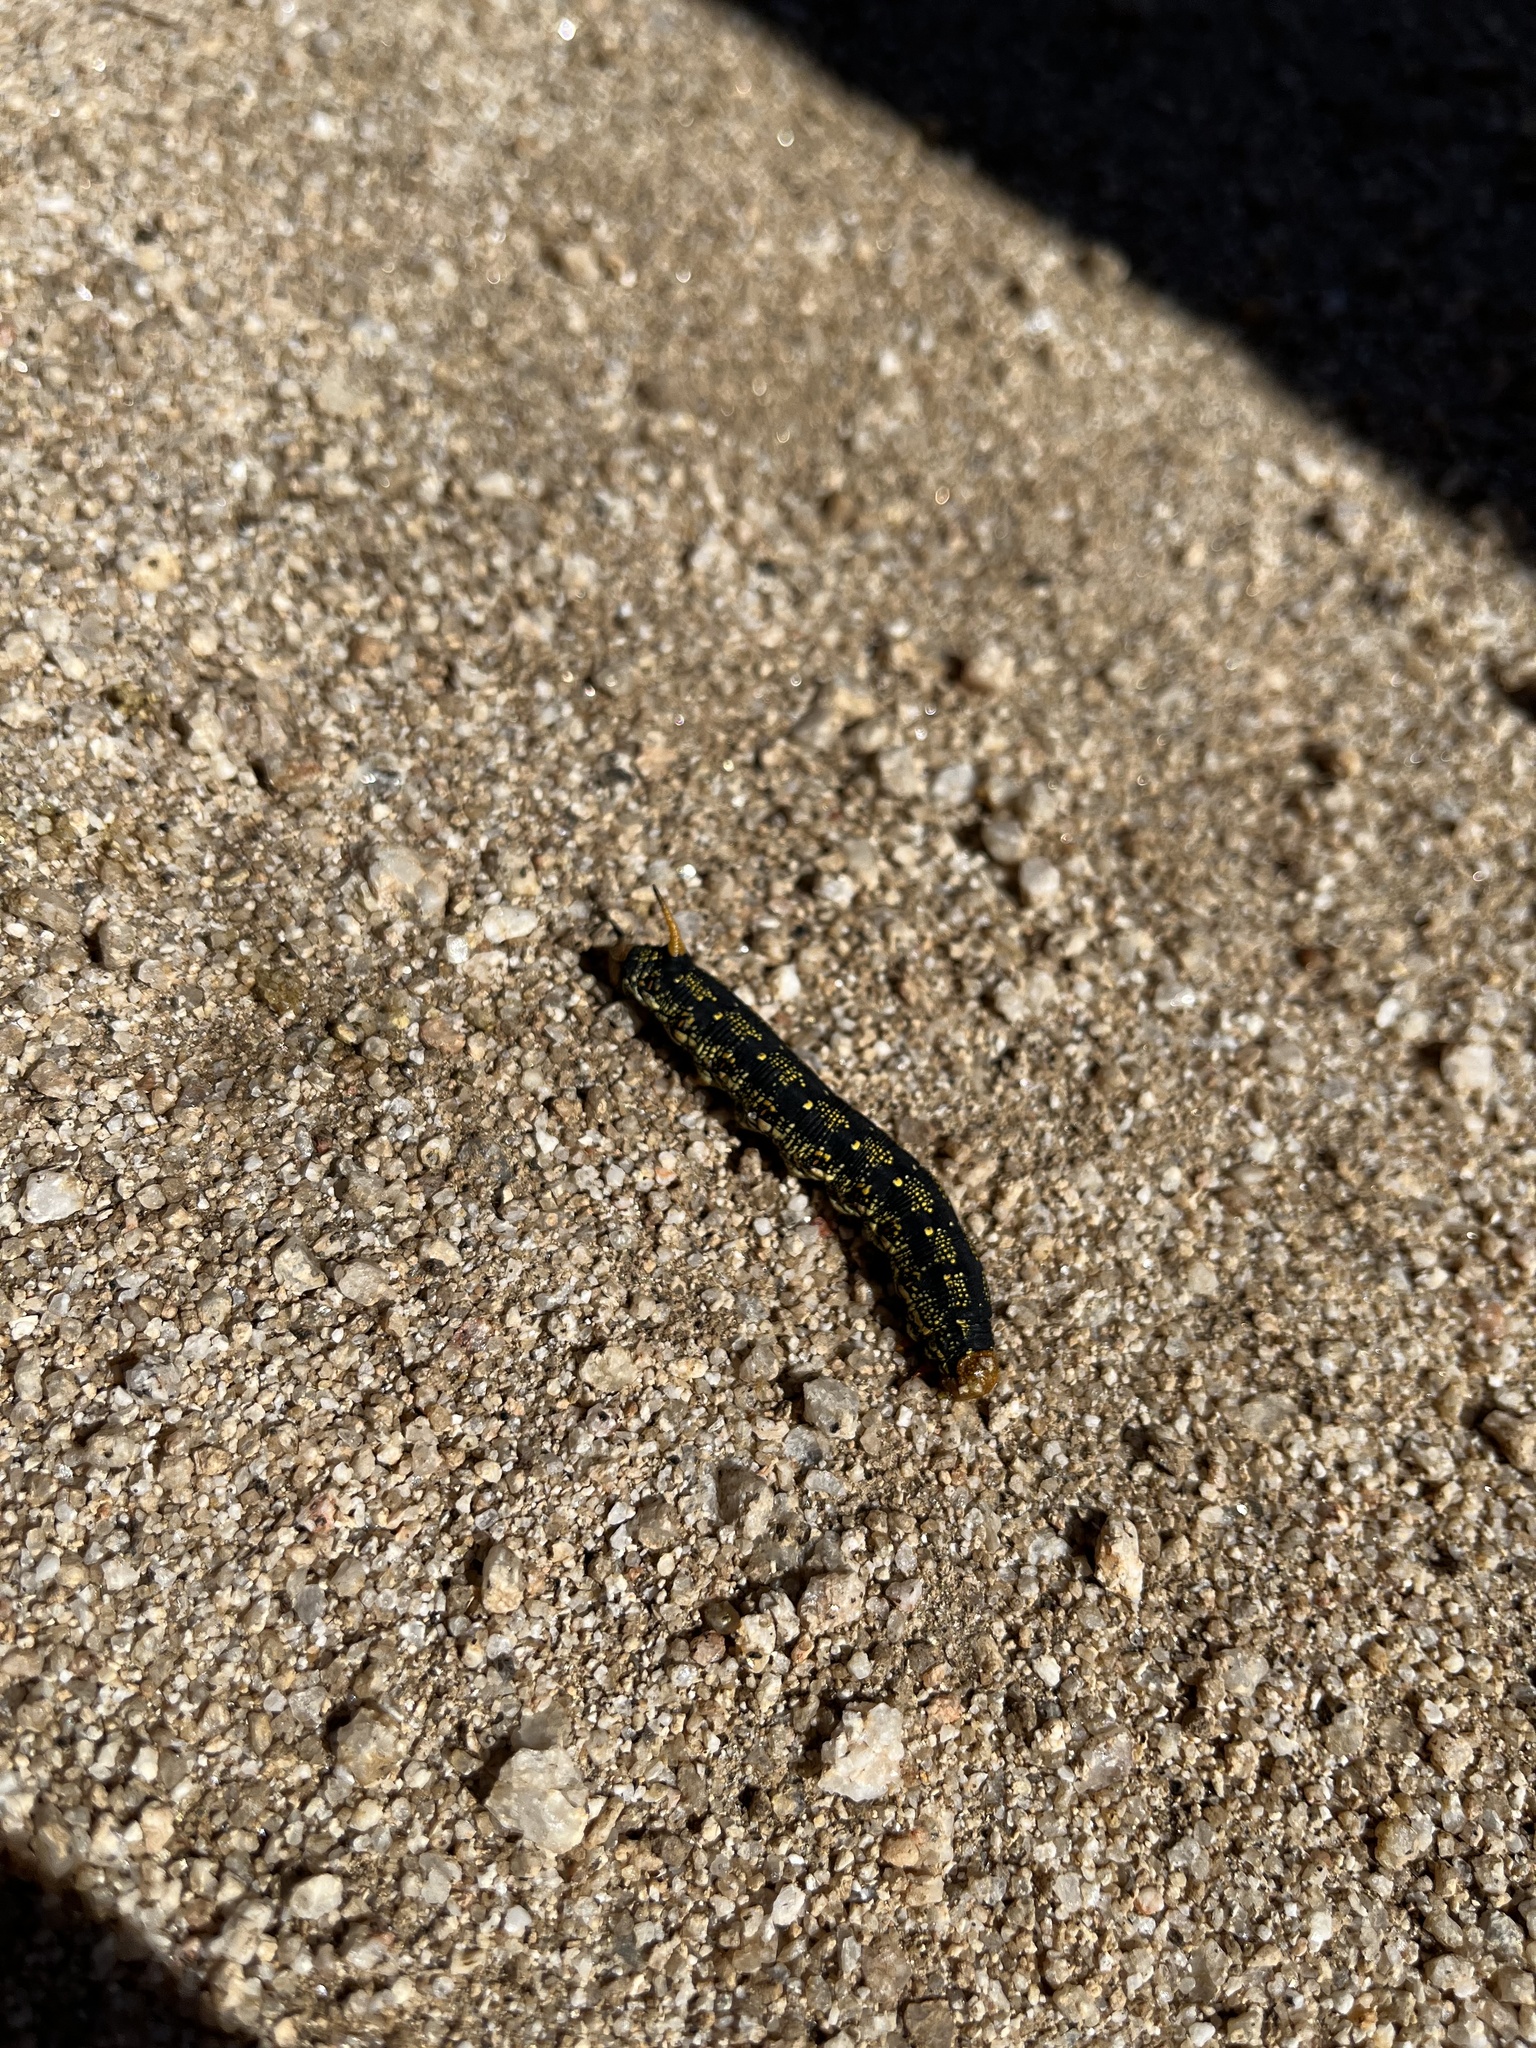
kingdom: Animalia
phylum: Arthropoda
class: Insecta
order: Lepidoptera
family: Sphingidae
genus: Hyles
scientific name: Hyles lineata
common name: White-lined sphinx
